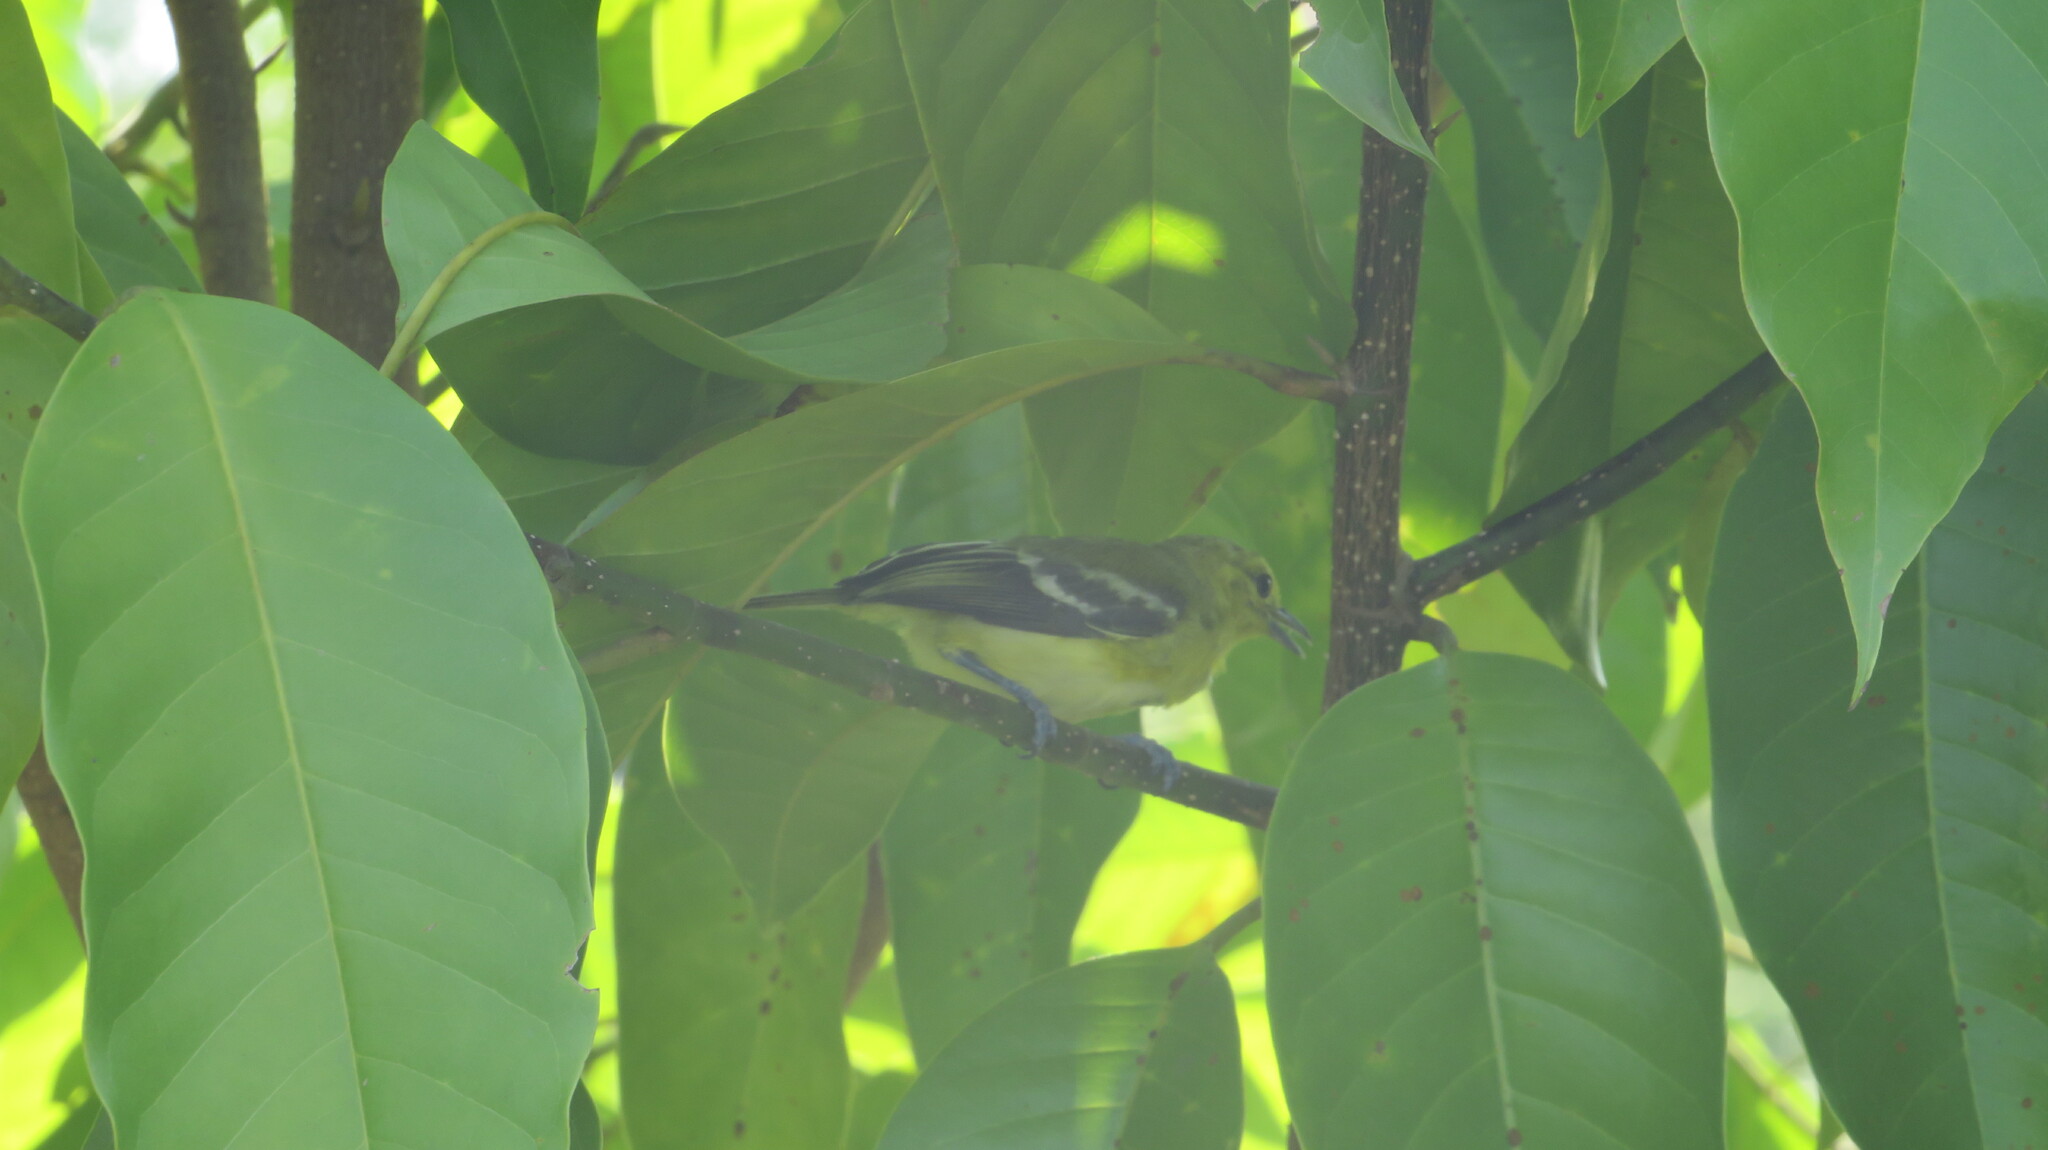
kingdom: Animalia
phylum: Chordata
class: Aves
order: Passeriformes
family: Aegithinidae
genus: Aegithina
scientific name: Aegithina tiphia
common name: Common iora
